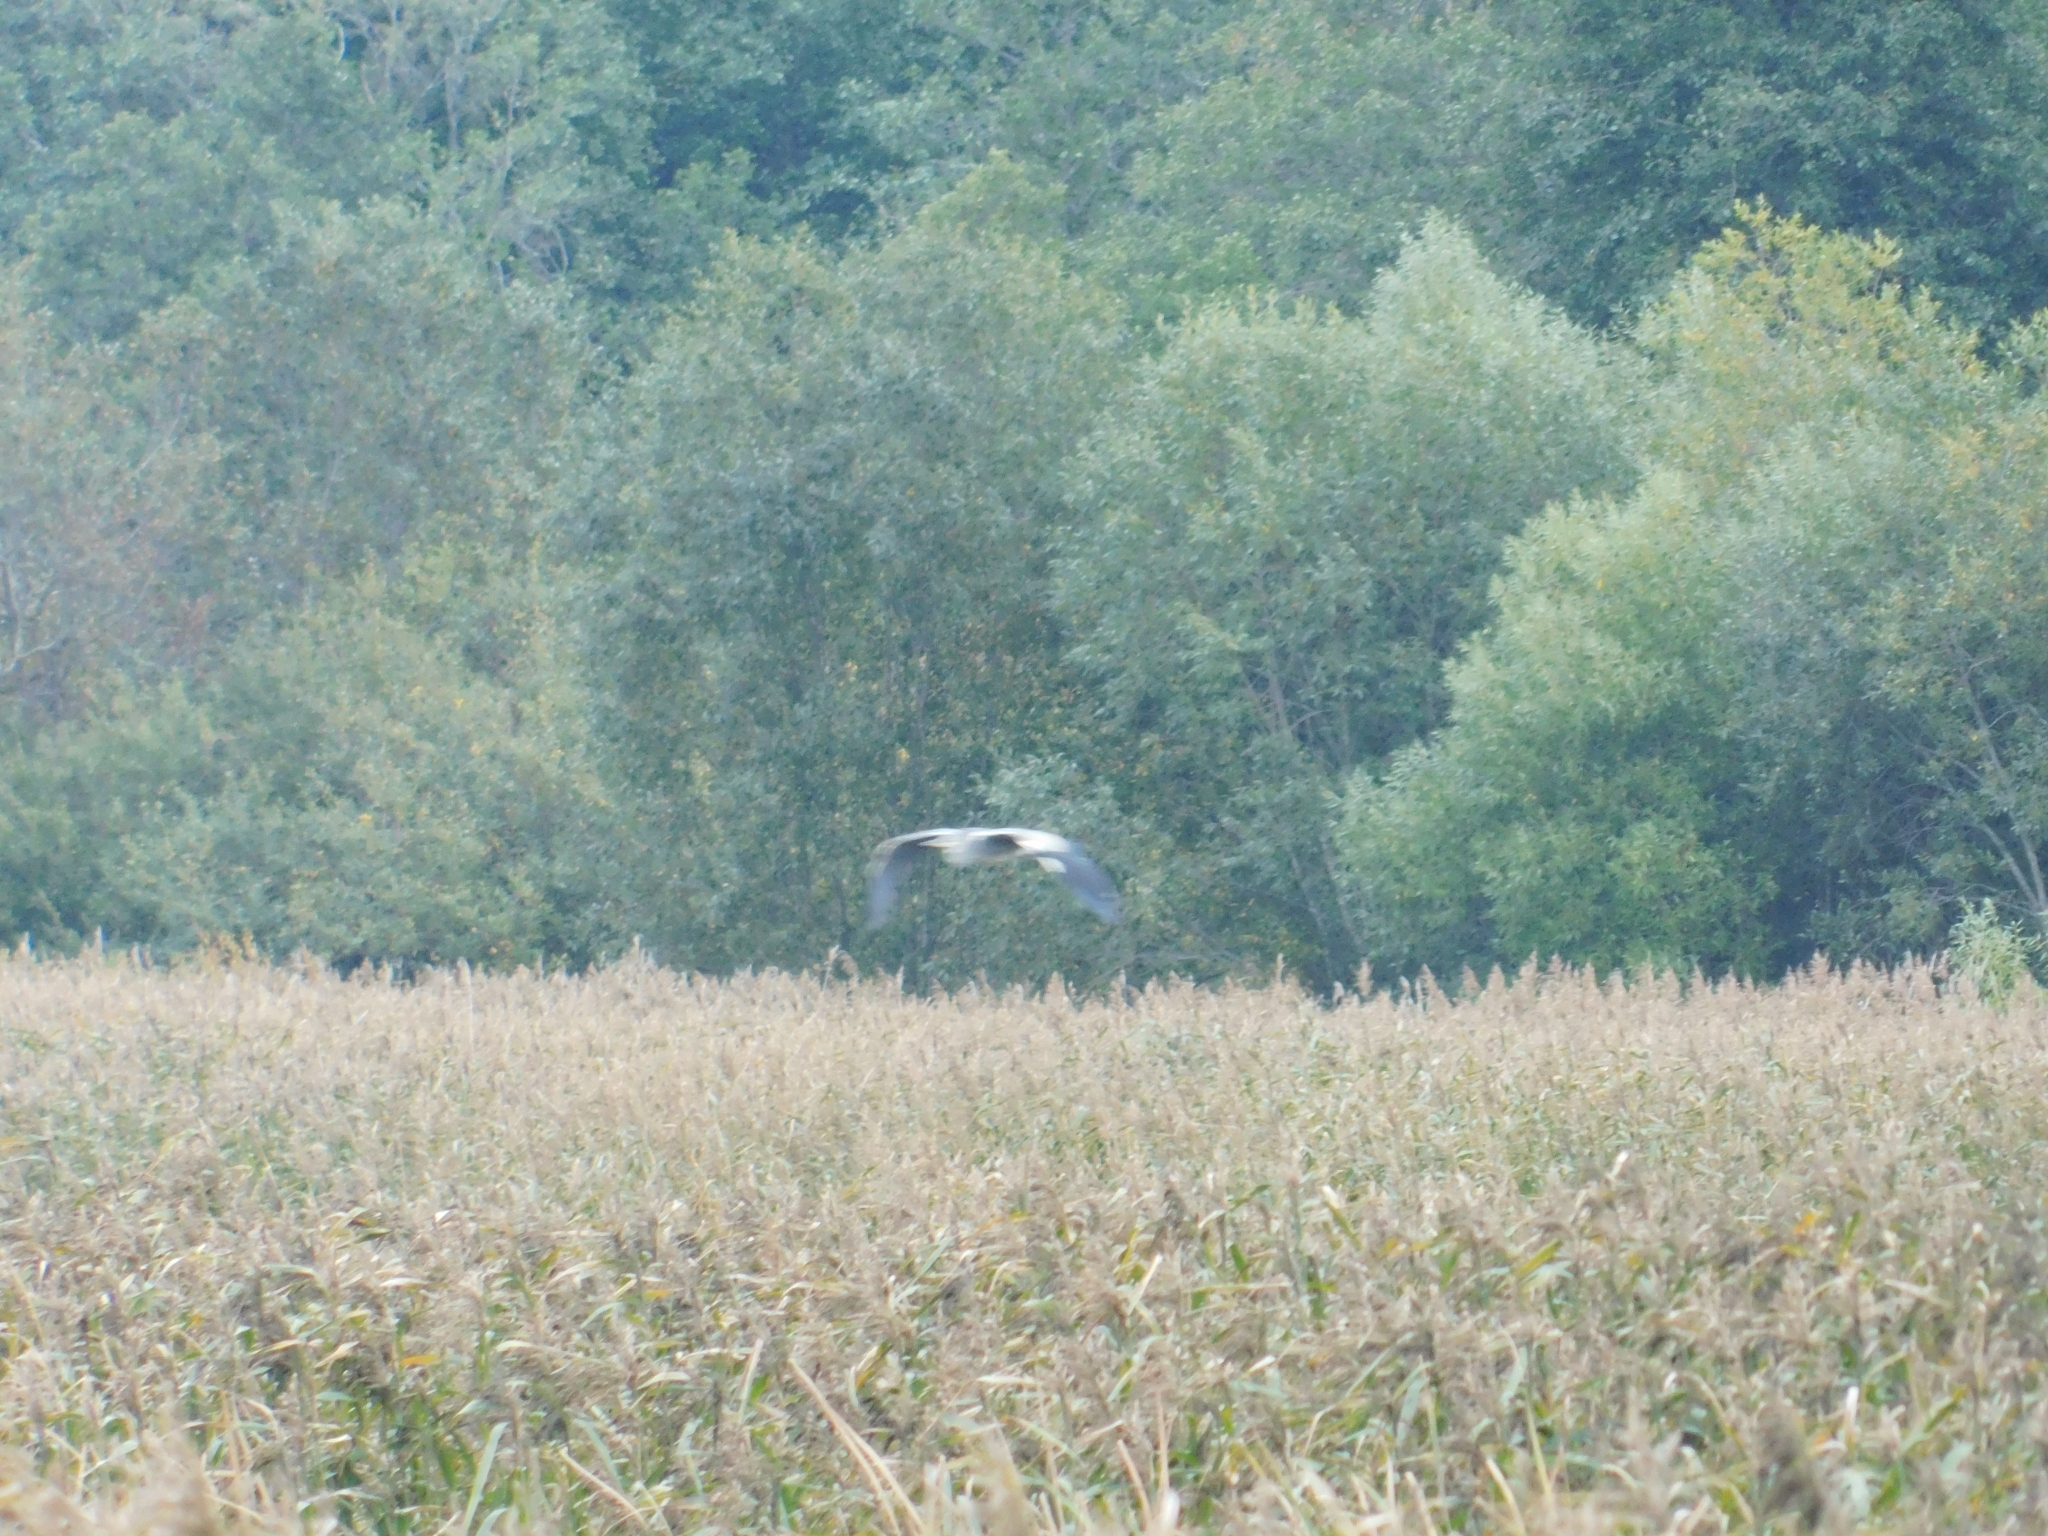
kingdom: Animalia
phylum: Chordata
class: Aves
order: Pelecaniformes
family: Ardeidae
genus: Ardea
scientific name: Ardea cinerea
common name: Grey heron
